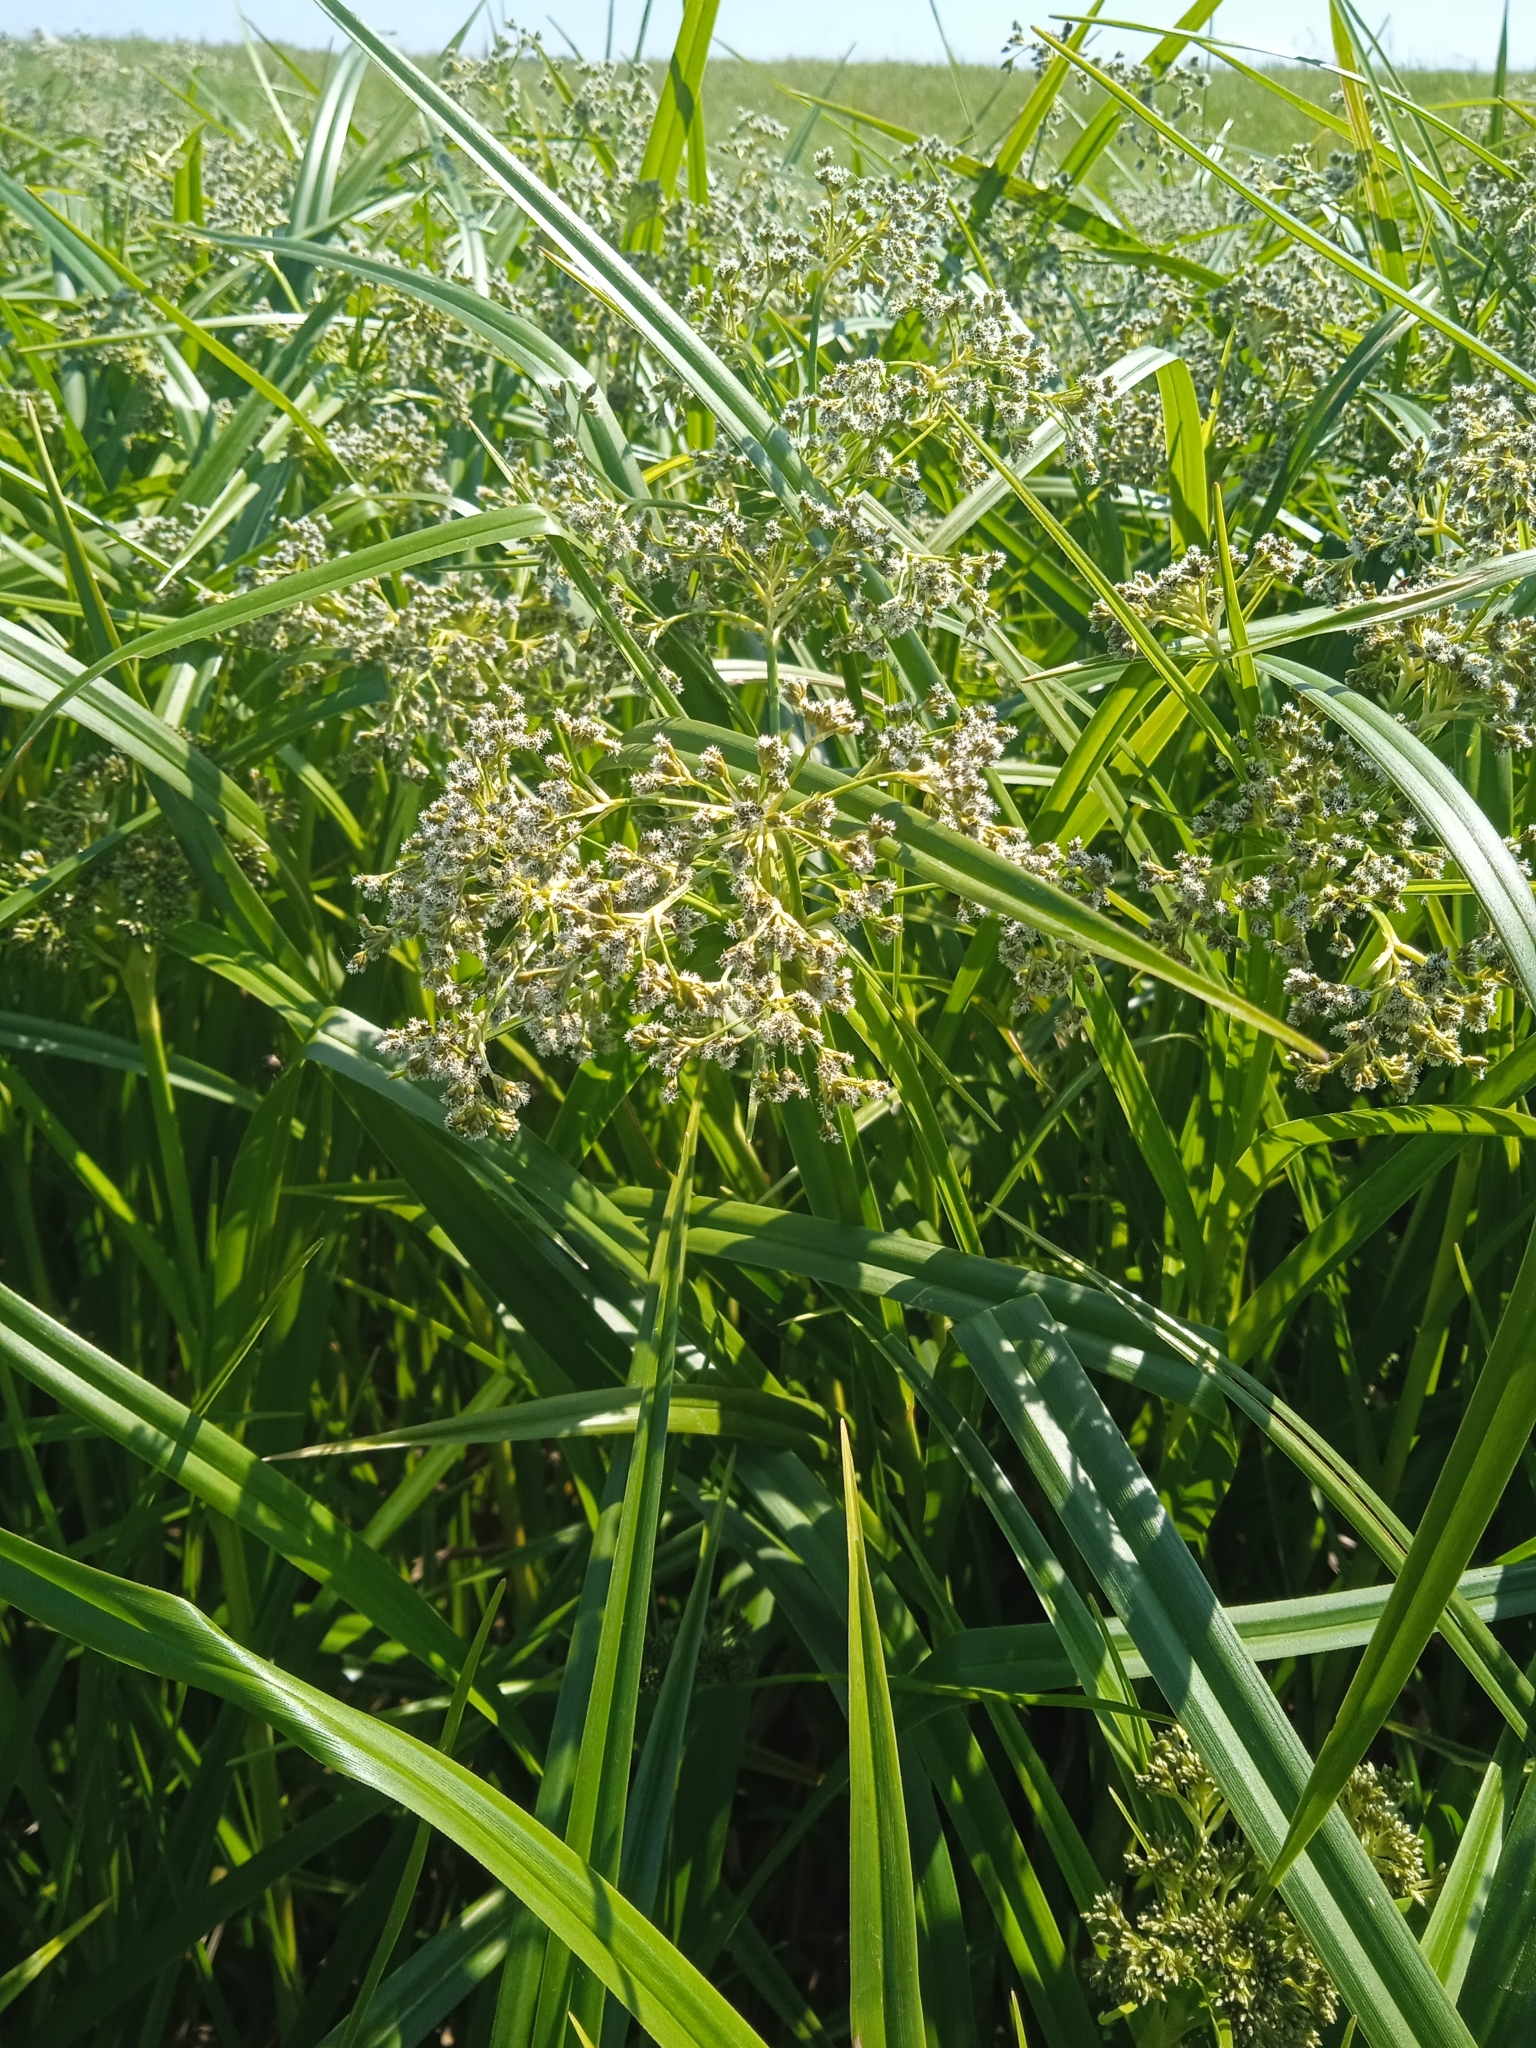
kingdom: Plantae
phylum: Tracheophyta
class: Liliopsida
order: Poales
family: Cyperaceae
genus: Scirpus
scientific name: Scirpus sylvaticus
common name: Wood club-rush
